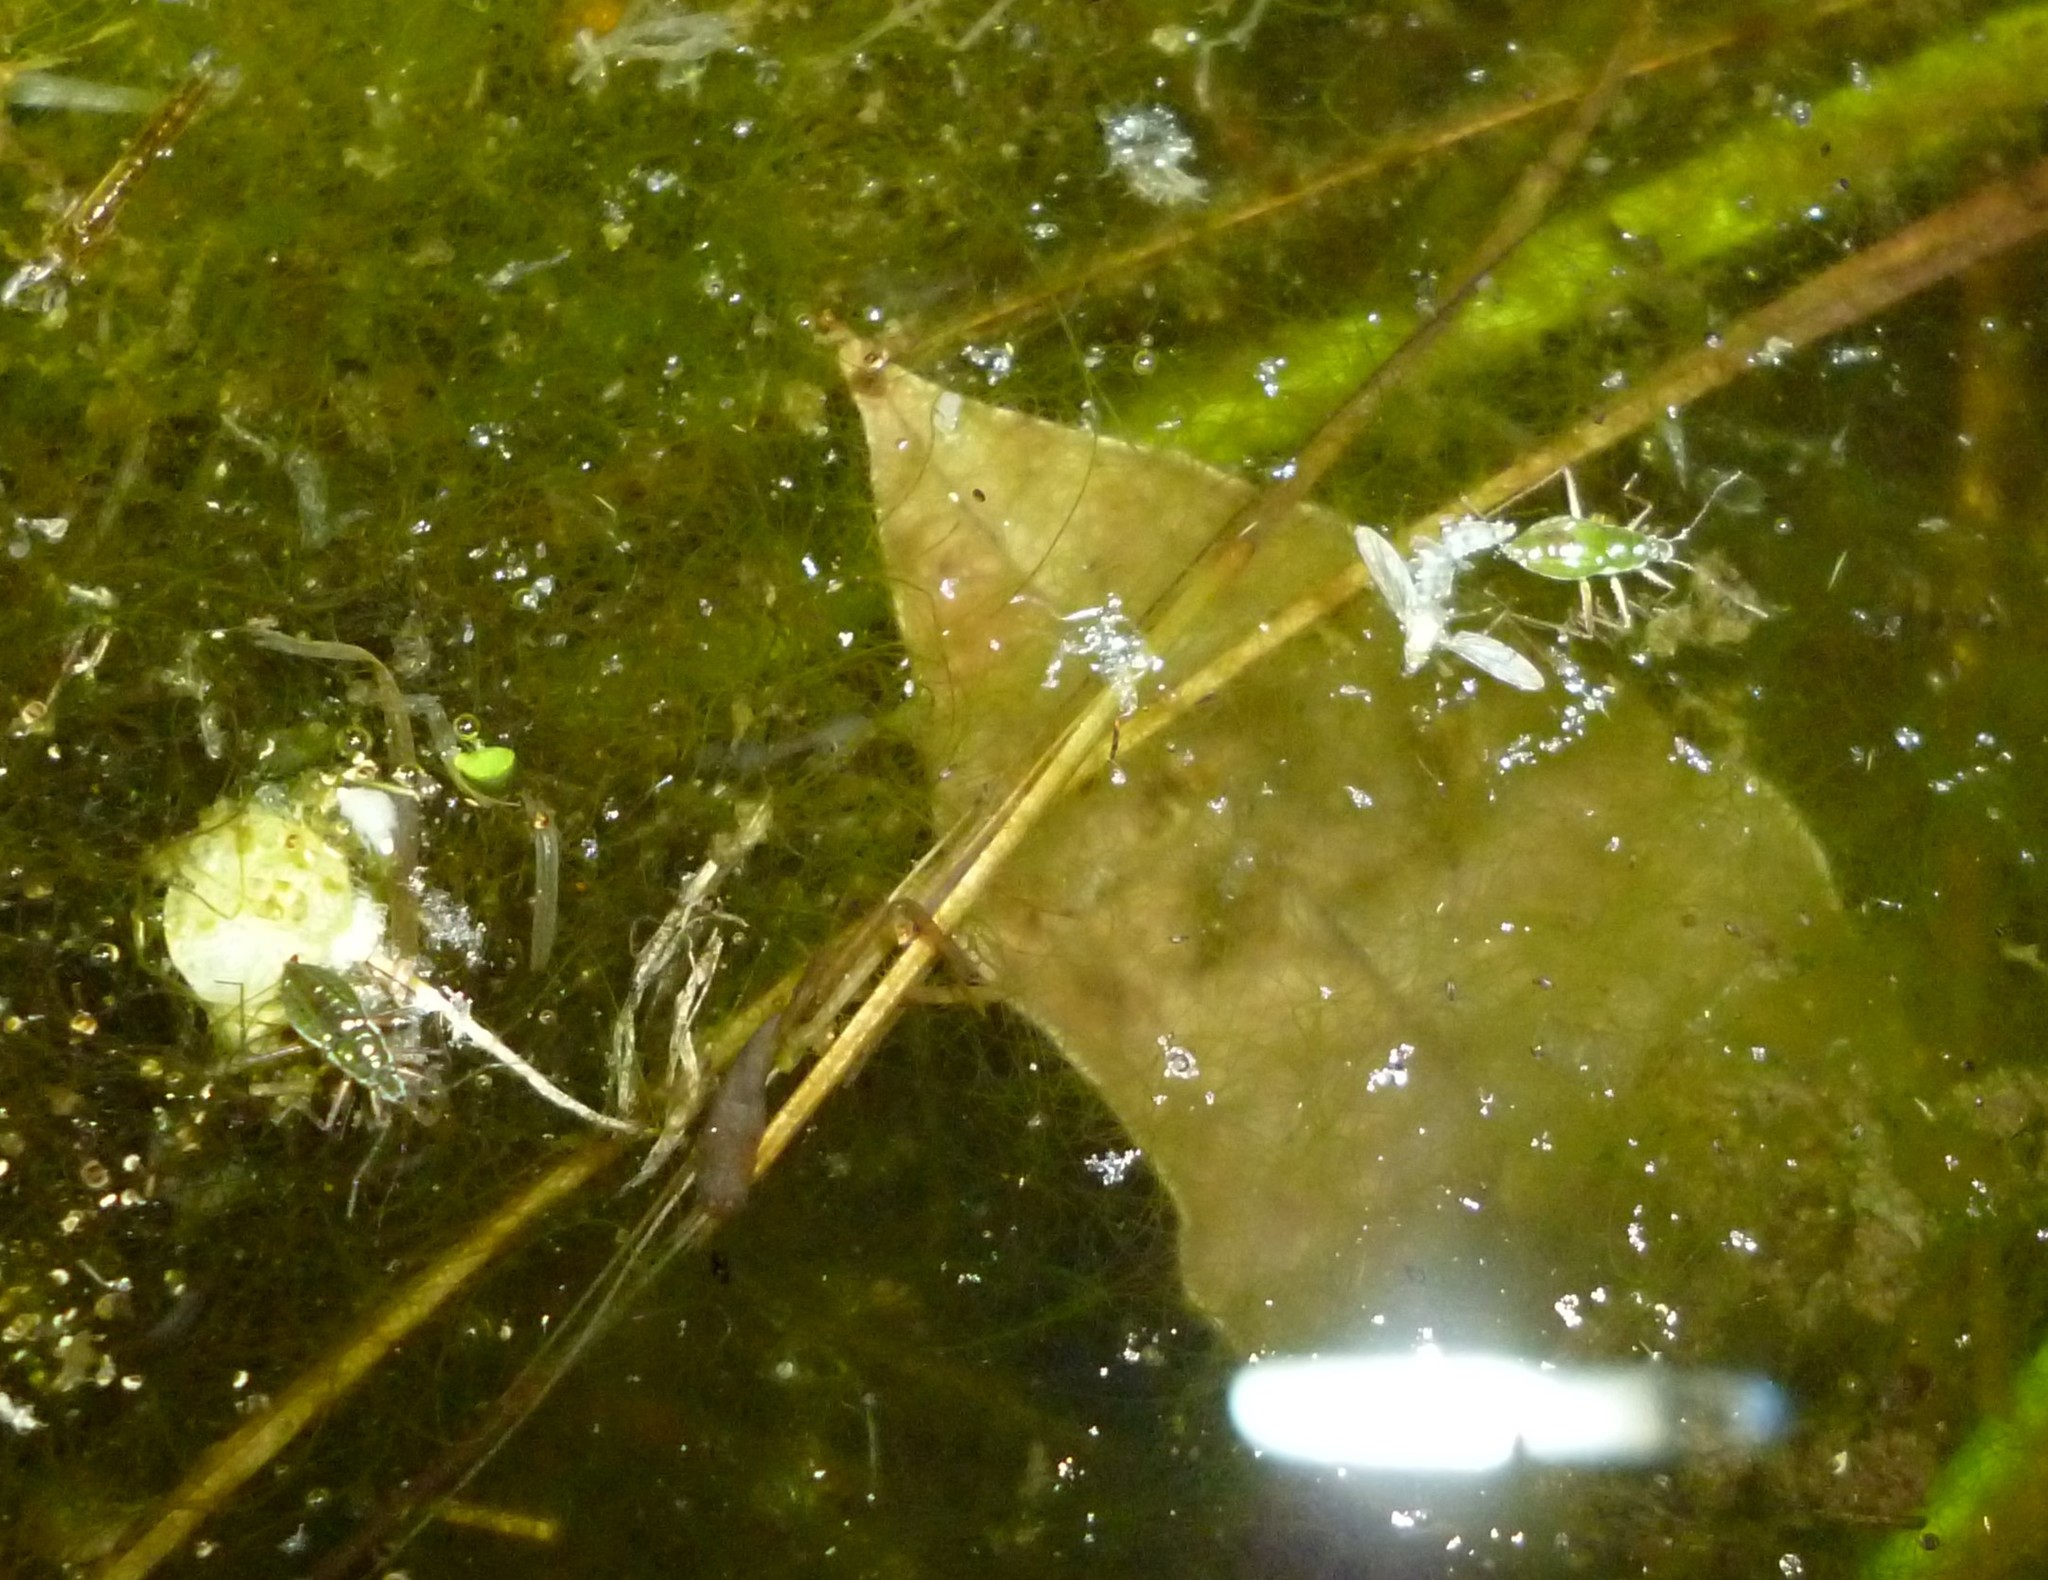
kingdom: Animalia
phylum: Arthropoda
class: Insecta
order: Hemiptera
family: Mesoveliidae
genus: Mesovelia
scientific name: Mesovelia
